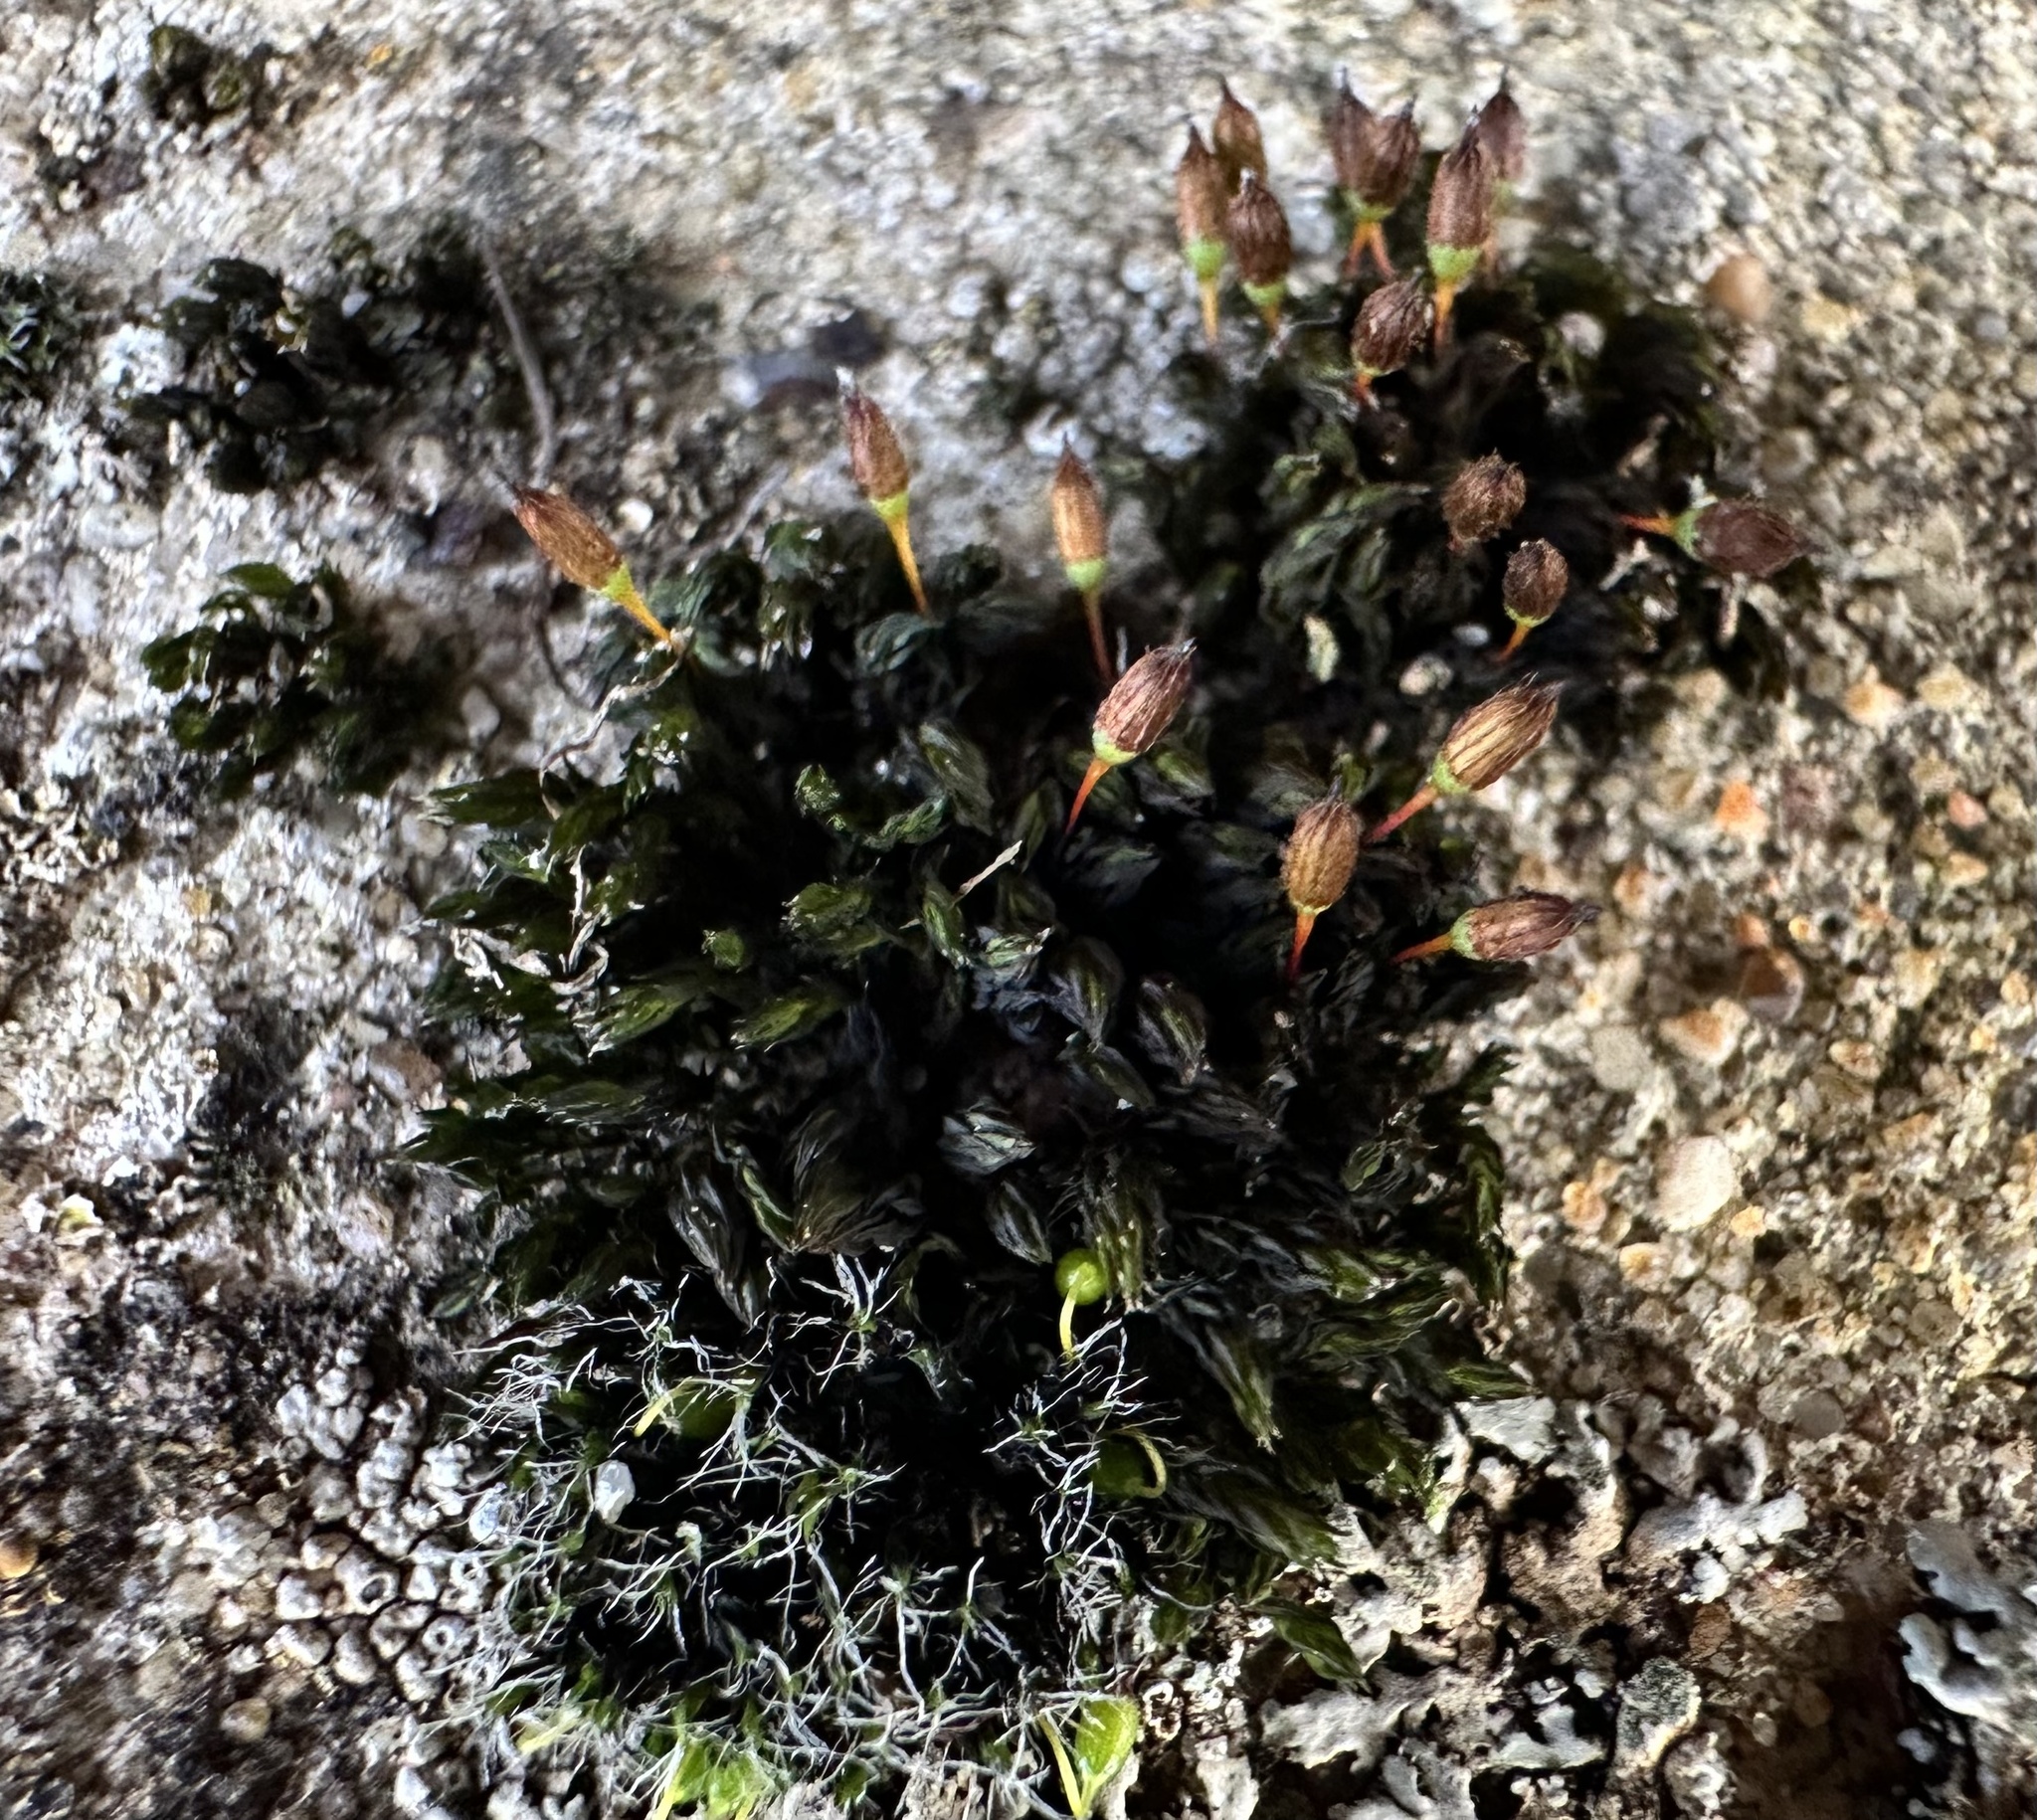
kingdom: Plantae
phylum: Bryophyta
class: Bryopsida
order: Orthotrichales
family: Orthotrichaceae
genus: Orthotrichum
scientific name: Orthotrichum anomalum
